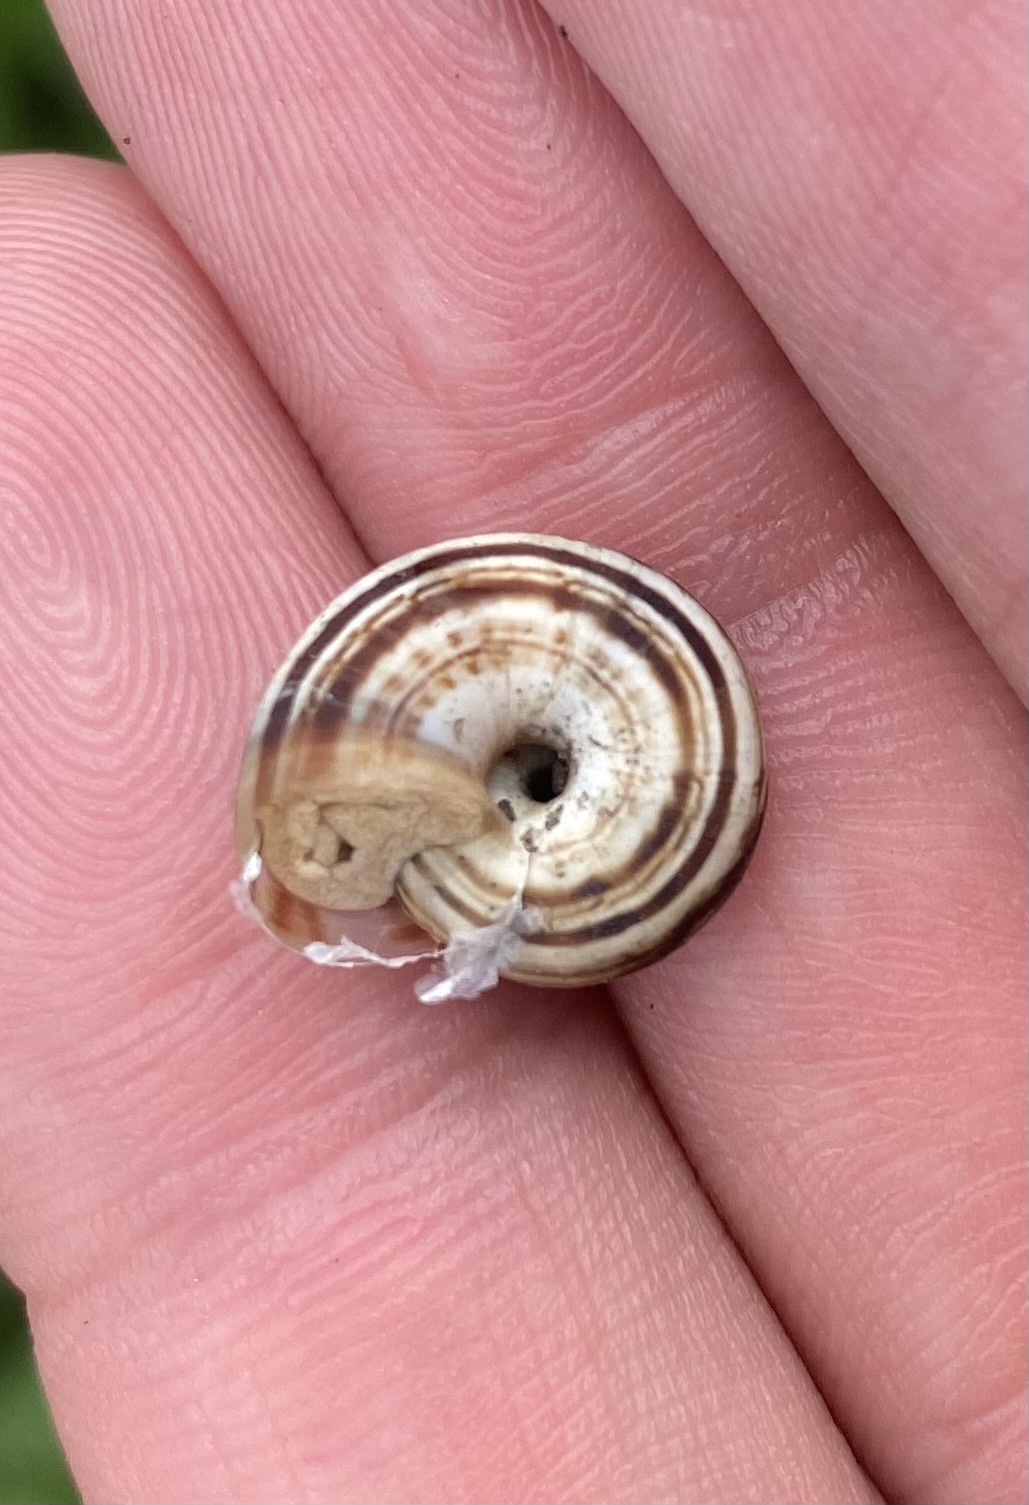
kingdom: Animalia
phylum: Mollusca
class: Gastropoda
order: Stylommatophora
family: Geomitridae
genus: Xeropicta
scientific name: Xeropicta derbentina
